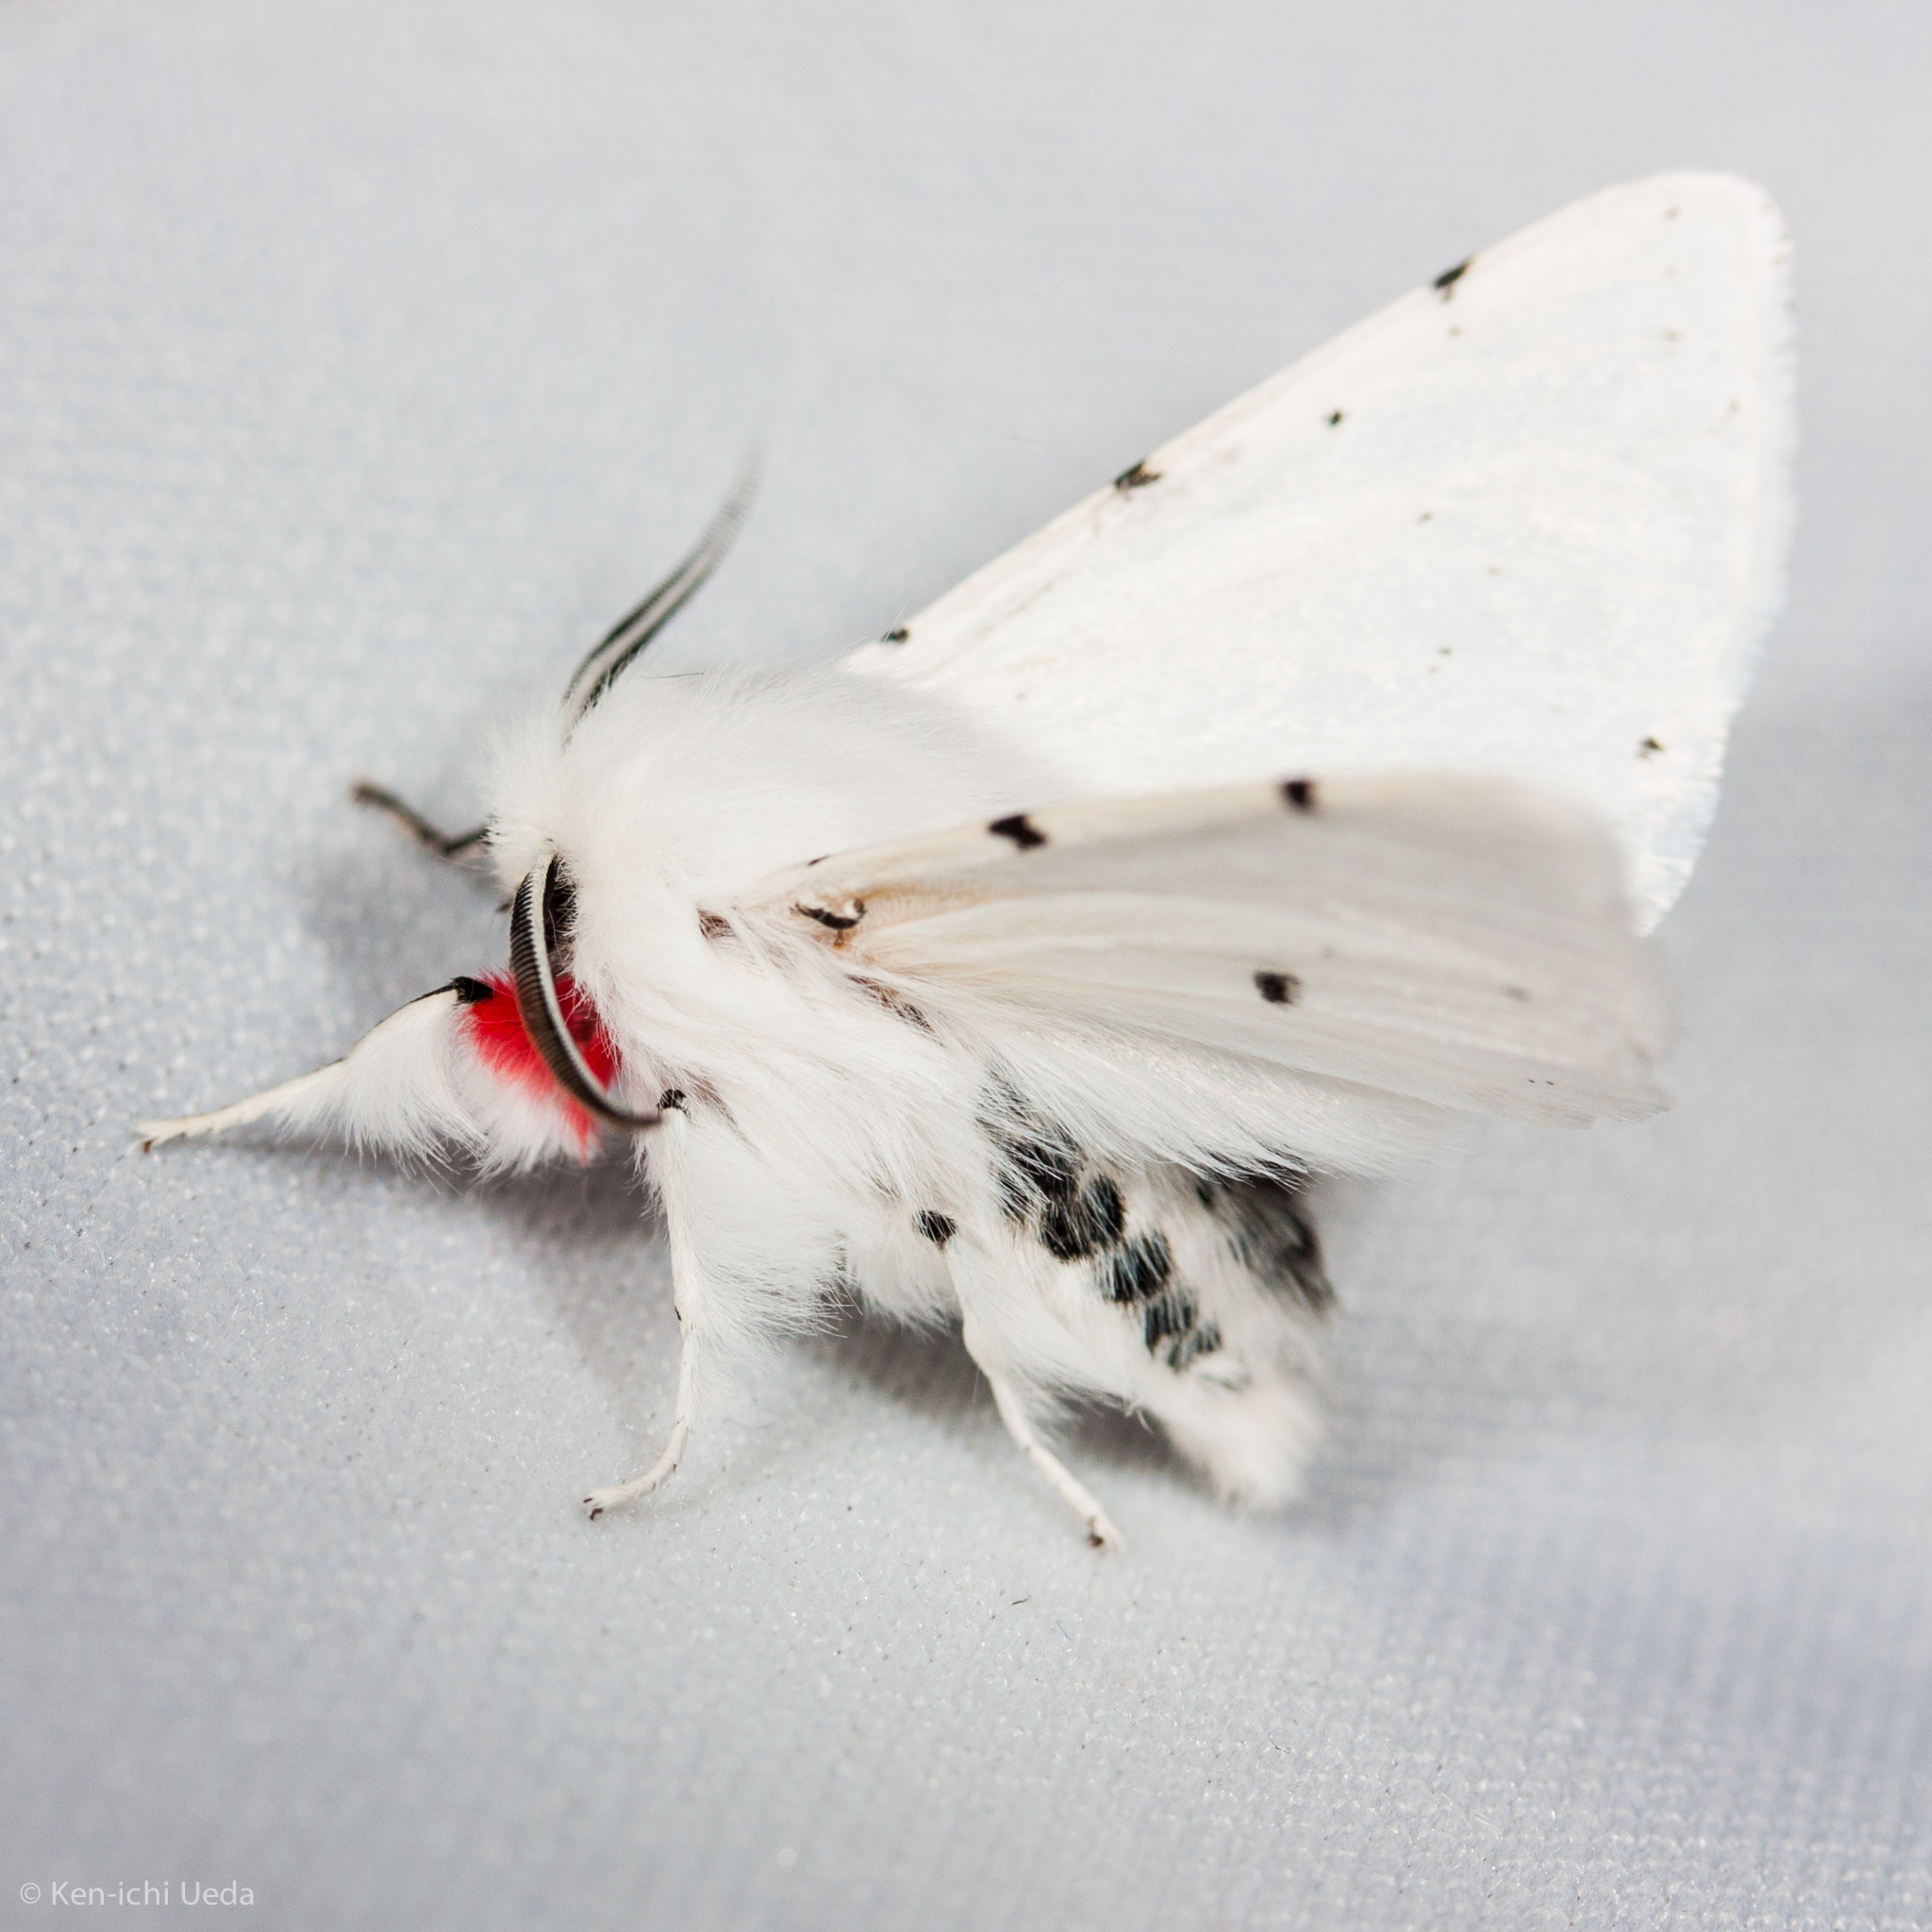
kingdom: Animalia
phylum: Arthropoda
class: Insecta
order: Lepidoptera
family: Erebidae
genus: Spilosoma
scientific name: Spilosoma vestalis
